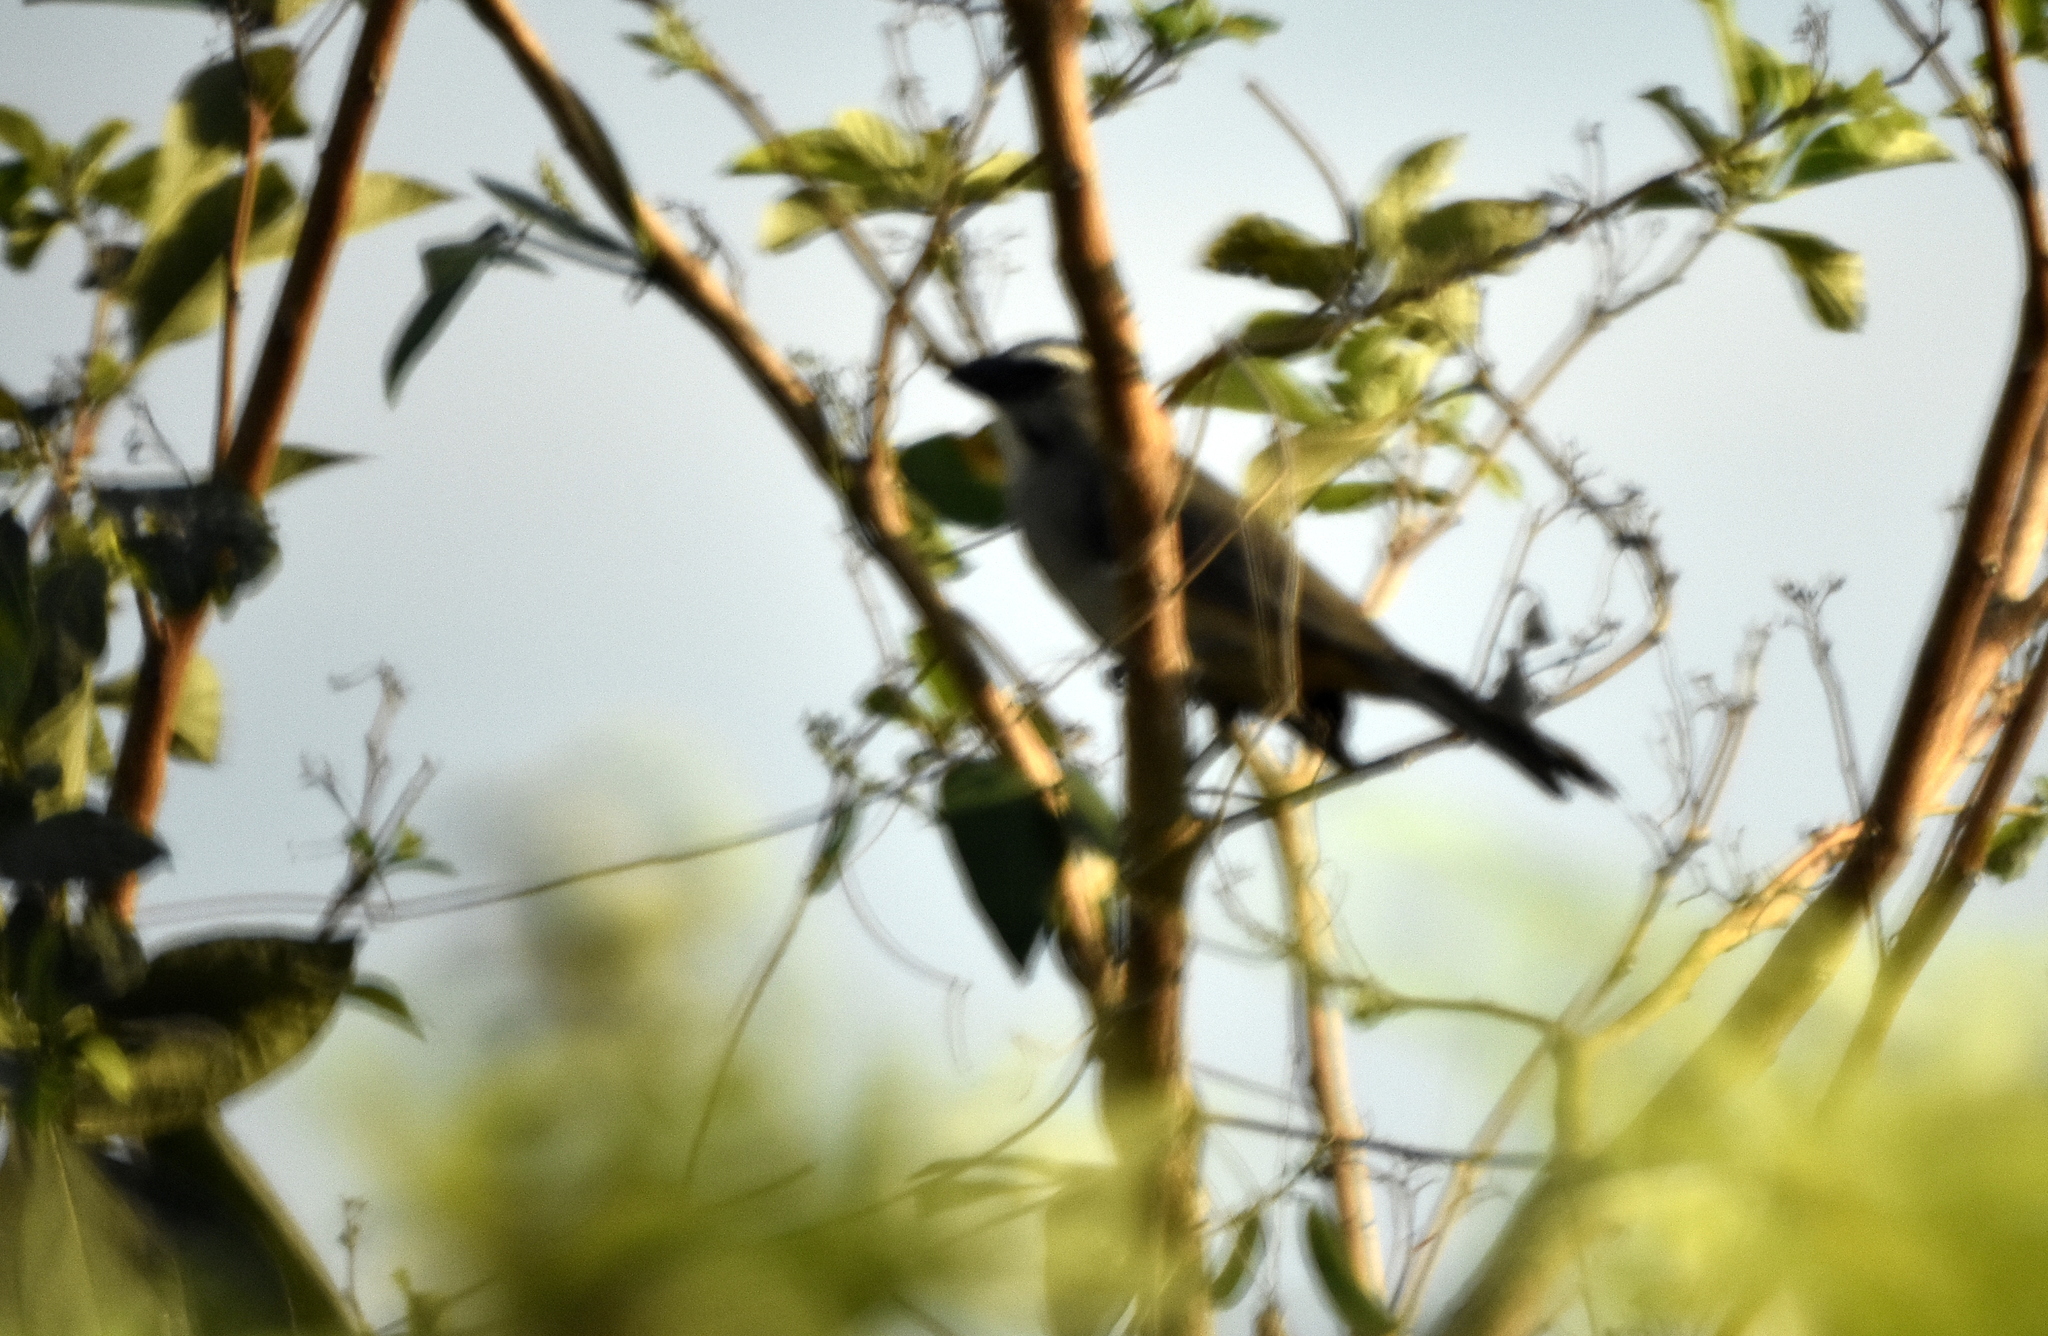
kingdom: Animalia
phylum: Chordata
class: Aves
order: Passeriformes
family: Thraupidae
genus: Saltator
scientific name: Saltator grandis
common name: Cinnamon-bellied saltator
